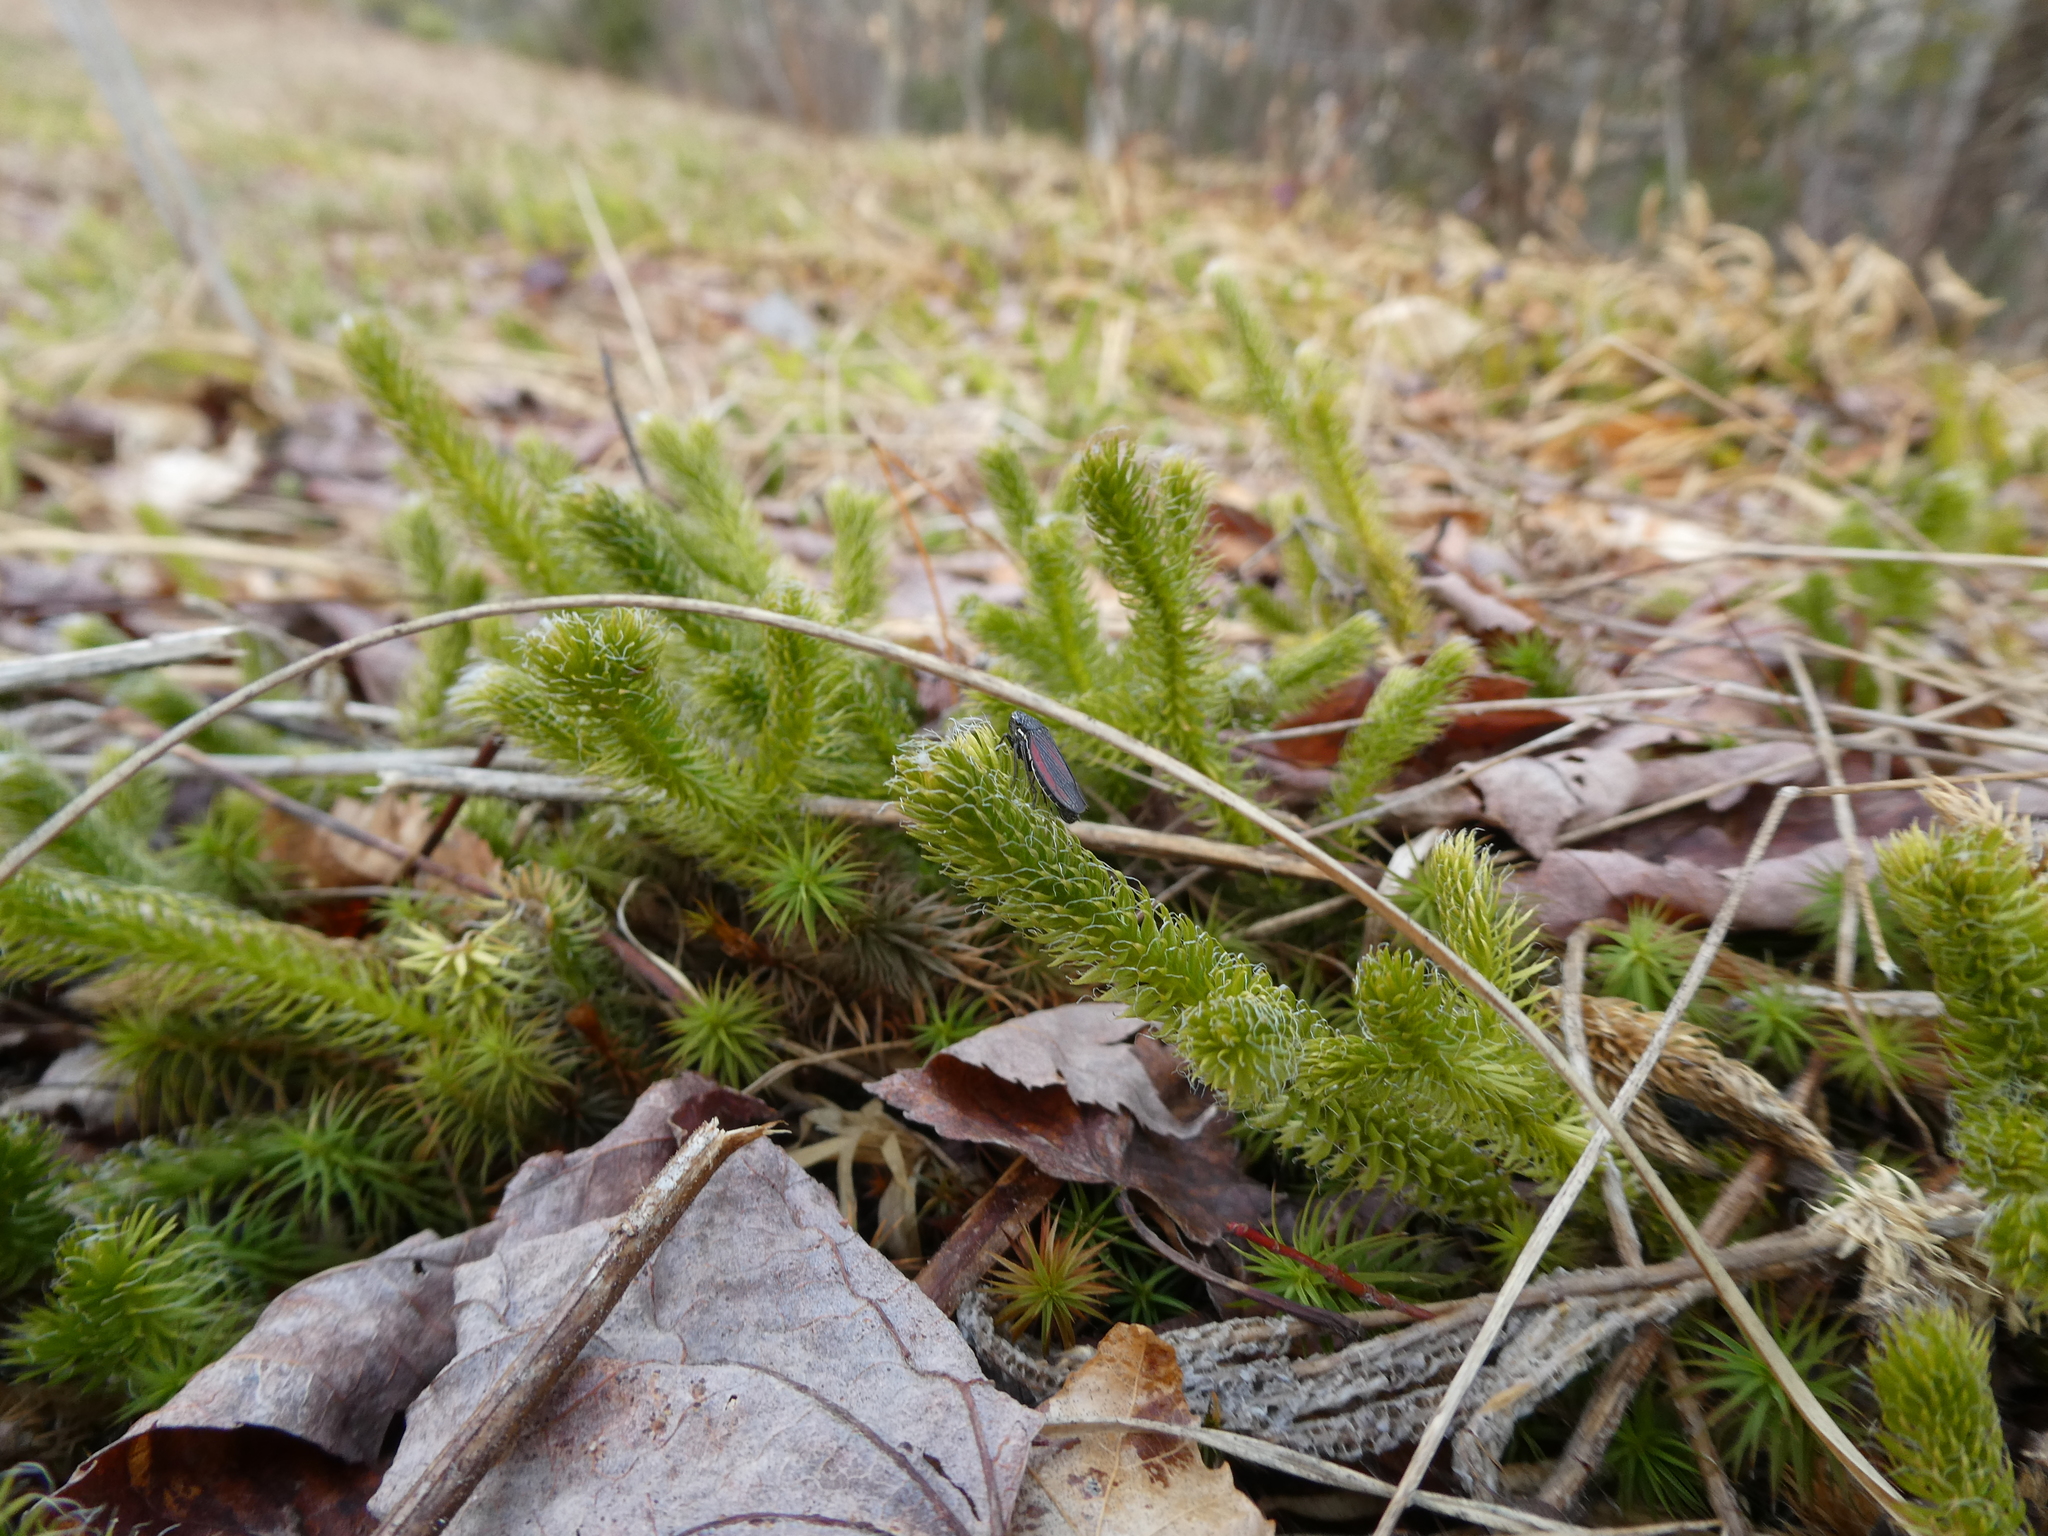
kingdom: Animalia
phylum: Arthropoda
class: Insecta
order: Hemiptera
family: Cicadellidae
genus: Cuerna
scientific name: Cuerna striata
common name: Striped leafhopper
